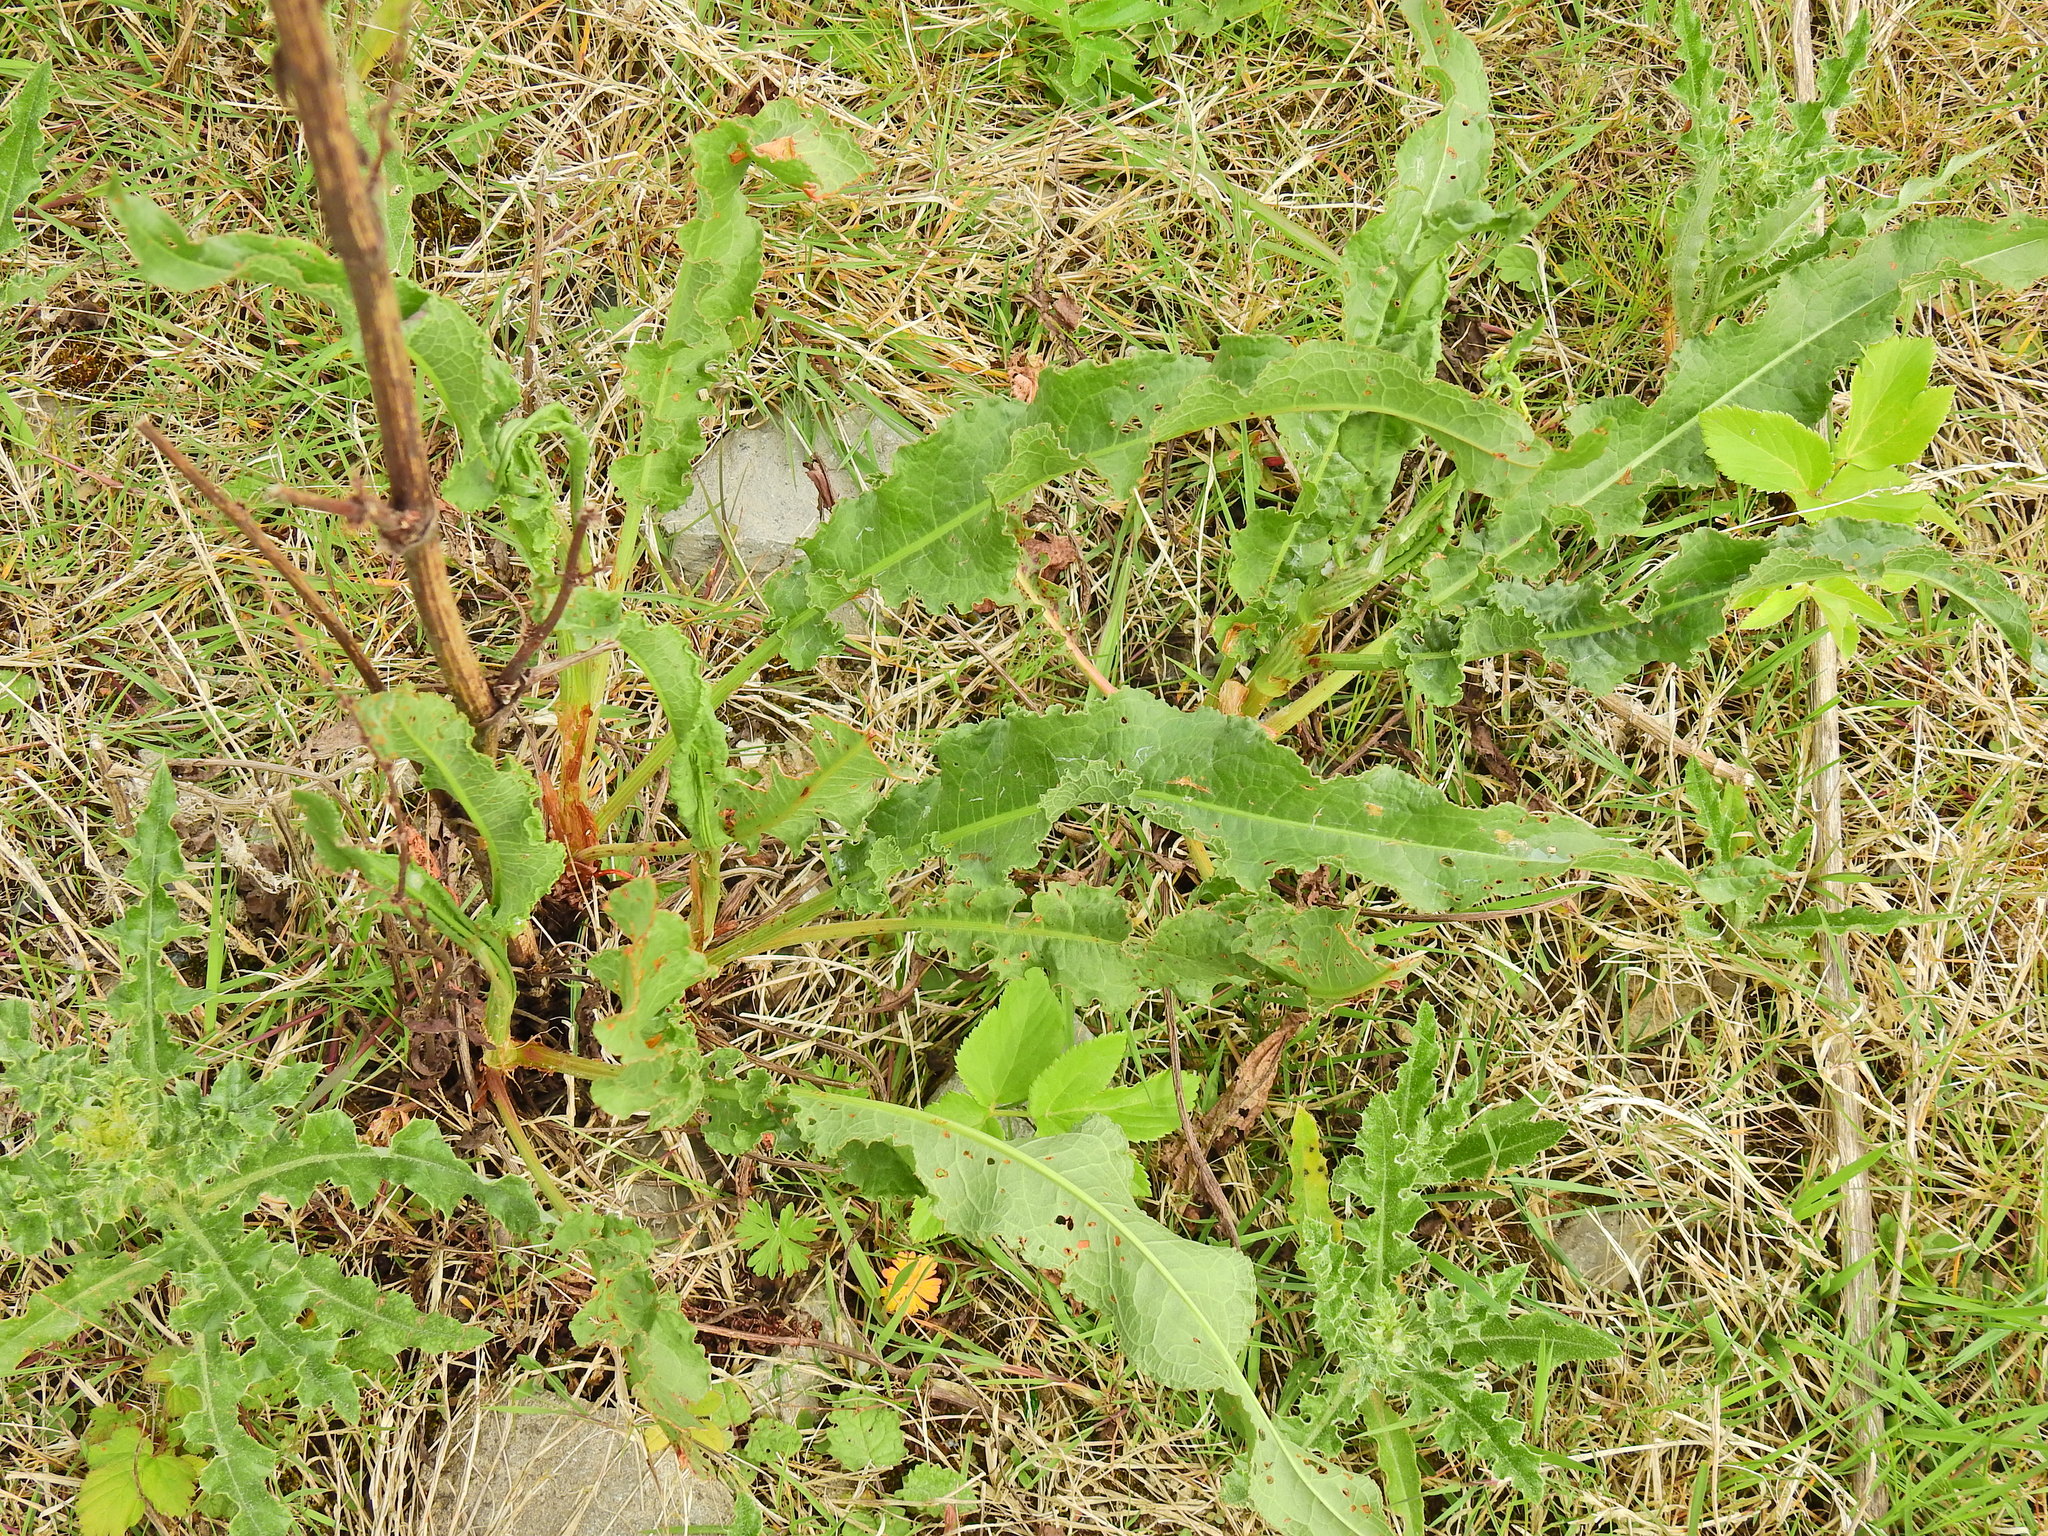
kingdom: Plantae
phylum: Tracheophyta
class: Magnoliopsida
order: Caryophyllales
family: Polygonaceae
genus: Rumex
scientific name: Rumex crispus
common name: Curled dock
